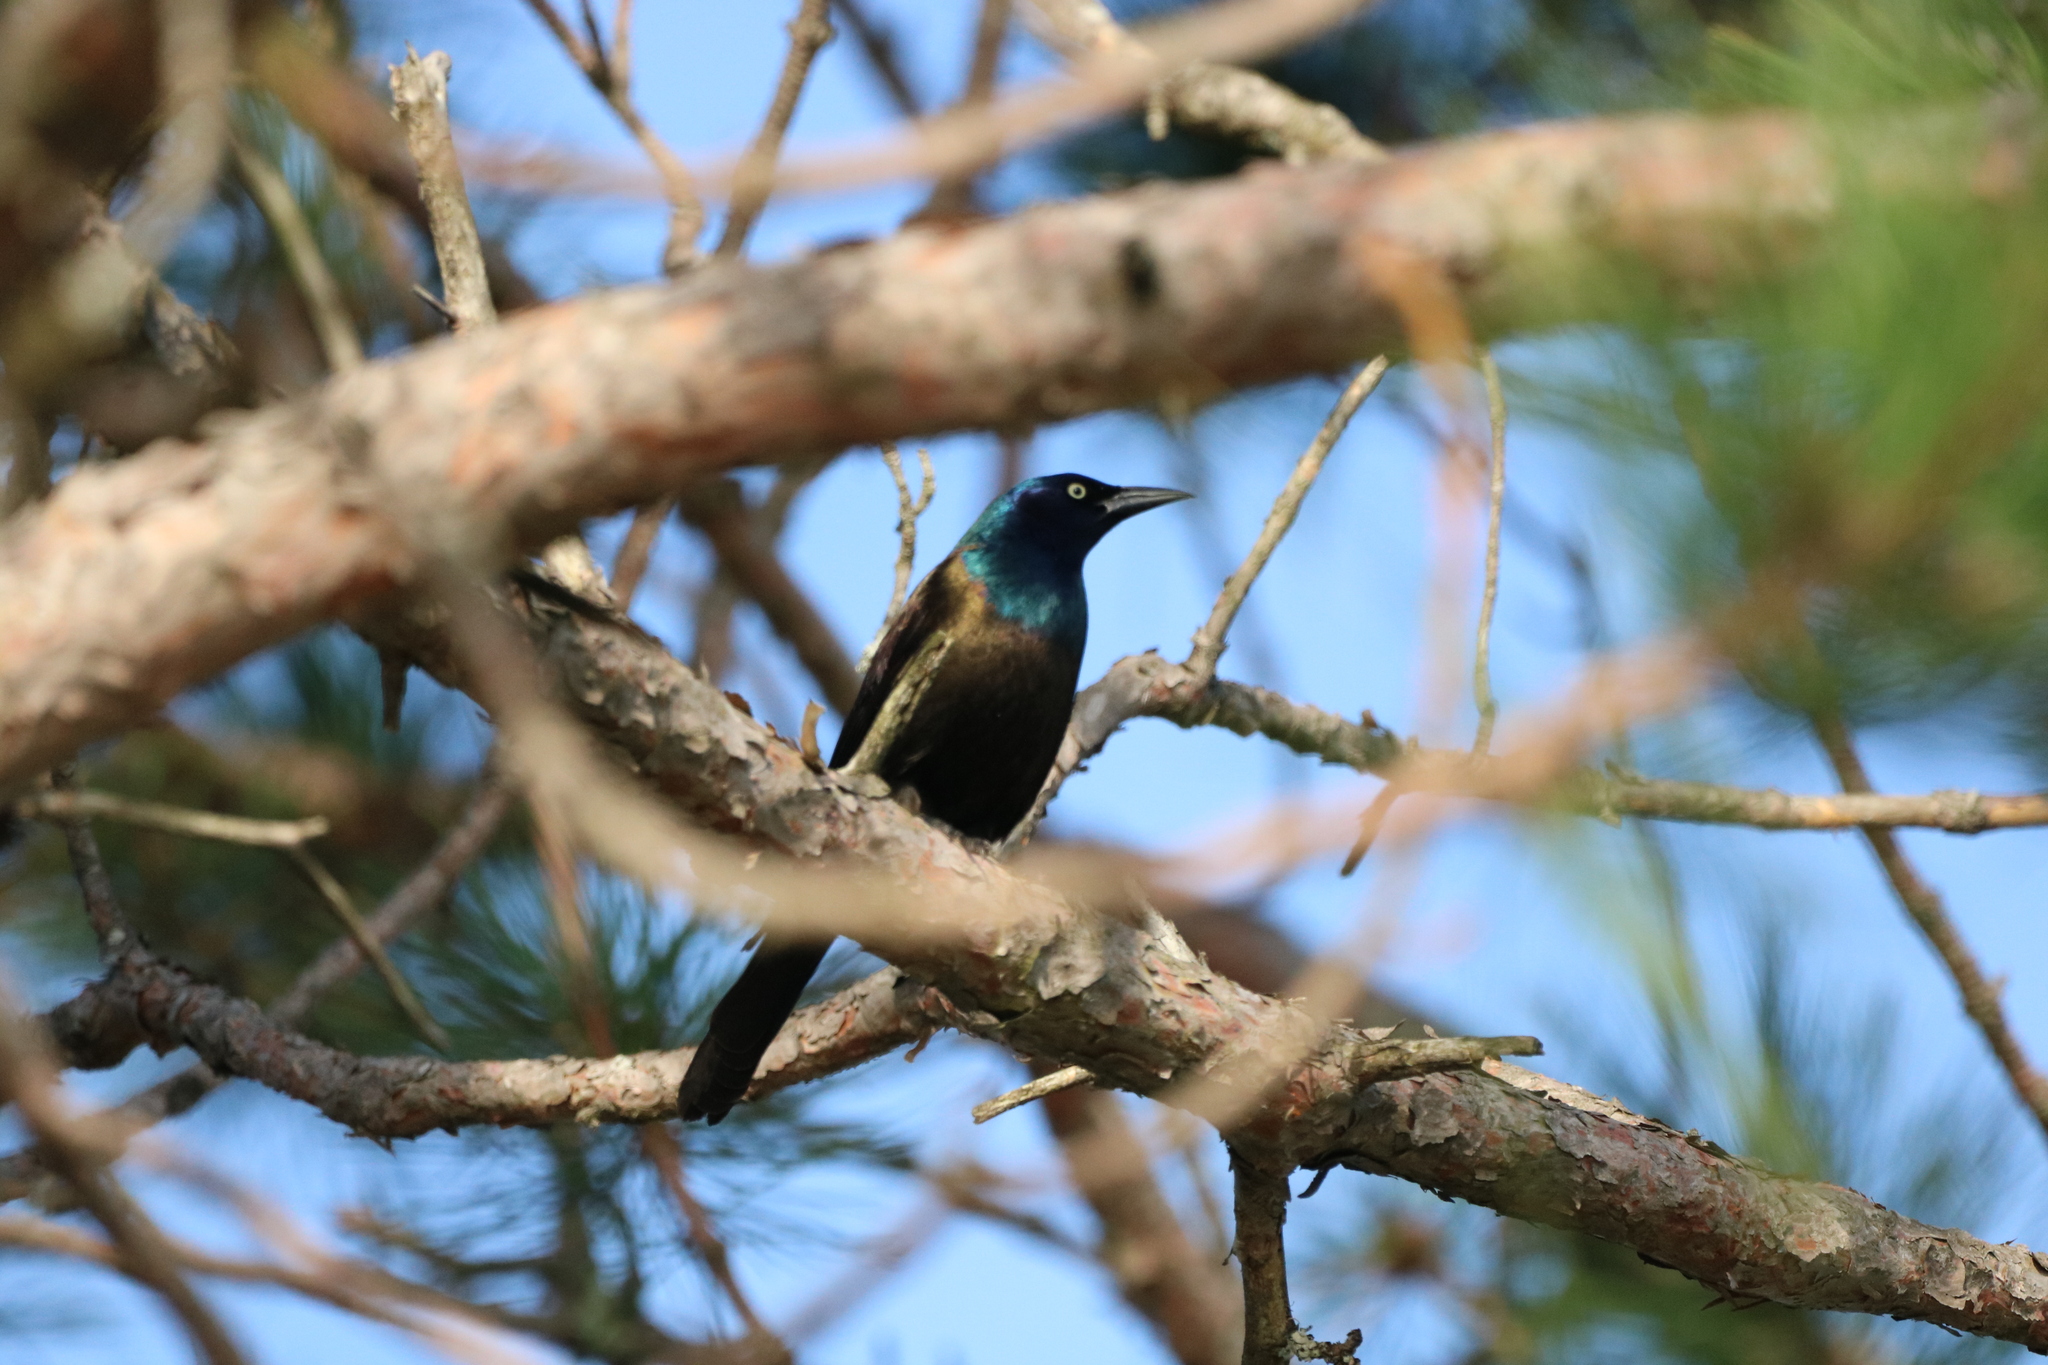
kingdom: Animalia
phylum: Chordata
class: Aves
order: Passeriformes
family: Icteridae
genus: Quiscalus
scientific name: Quiscalus quiscula
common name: Common grackle
